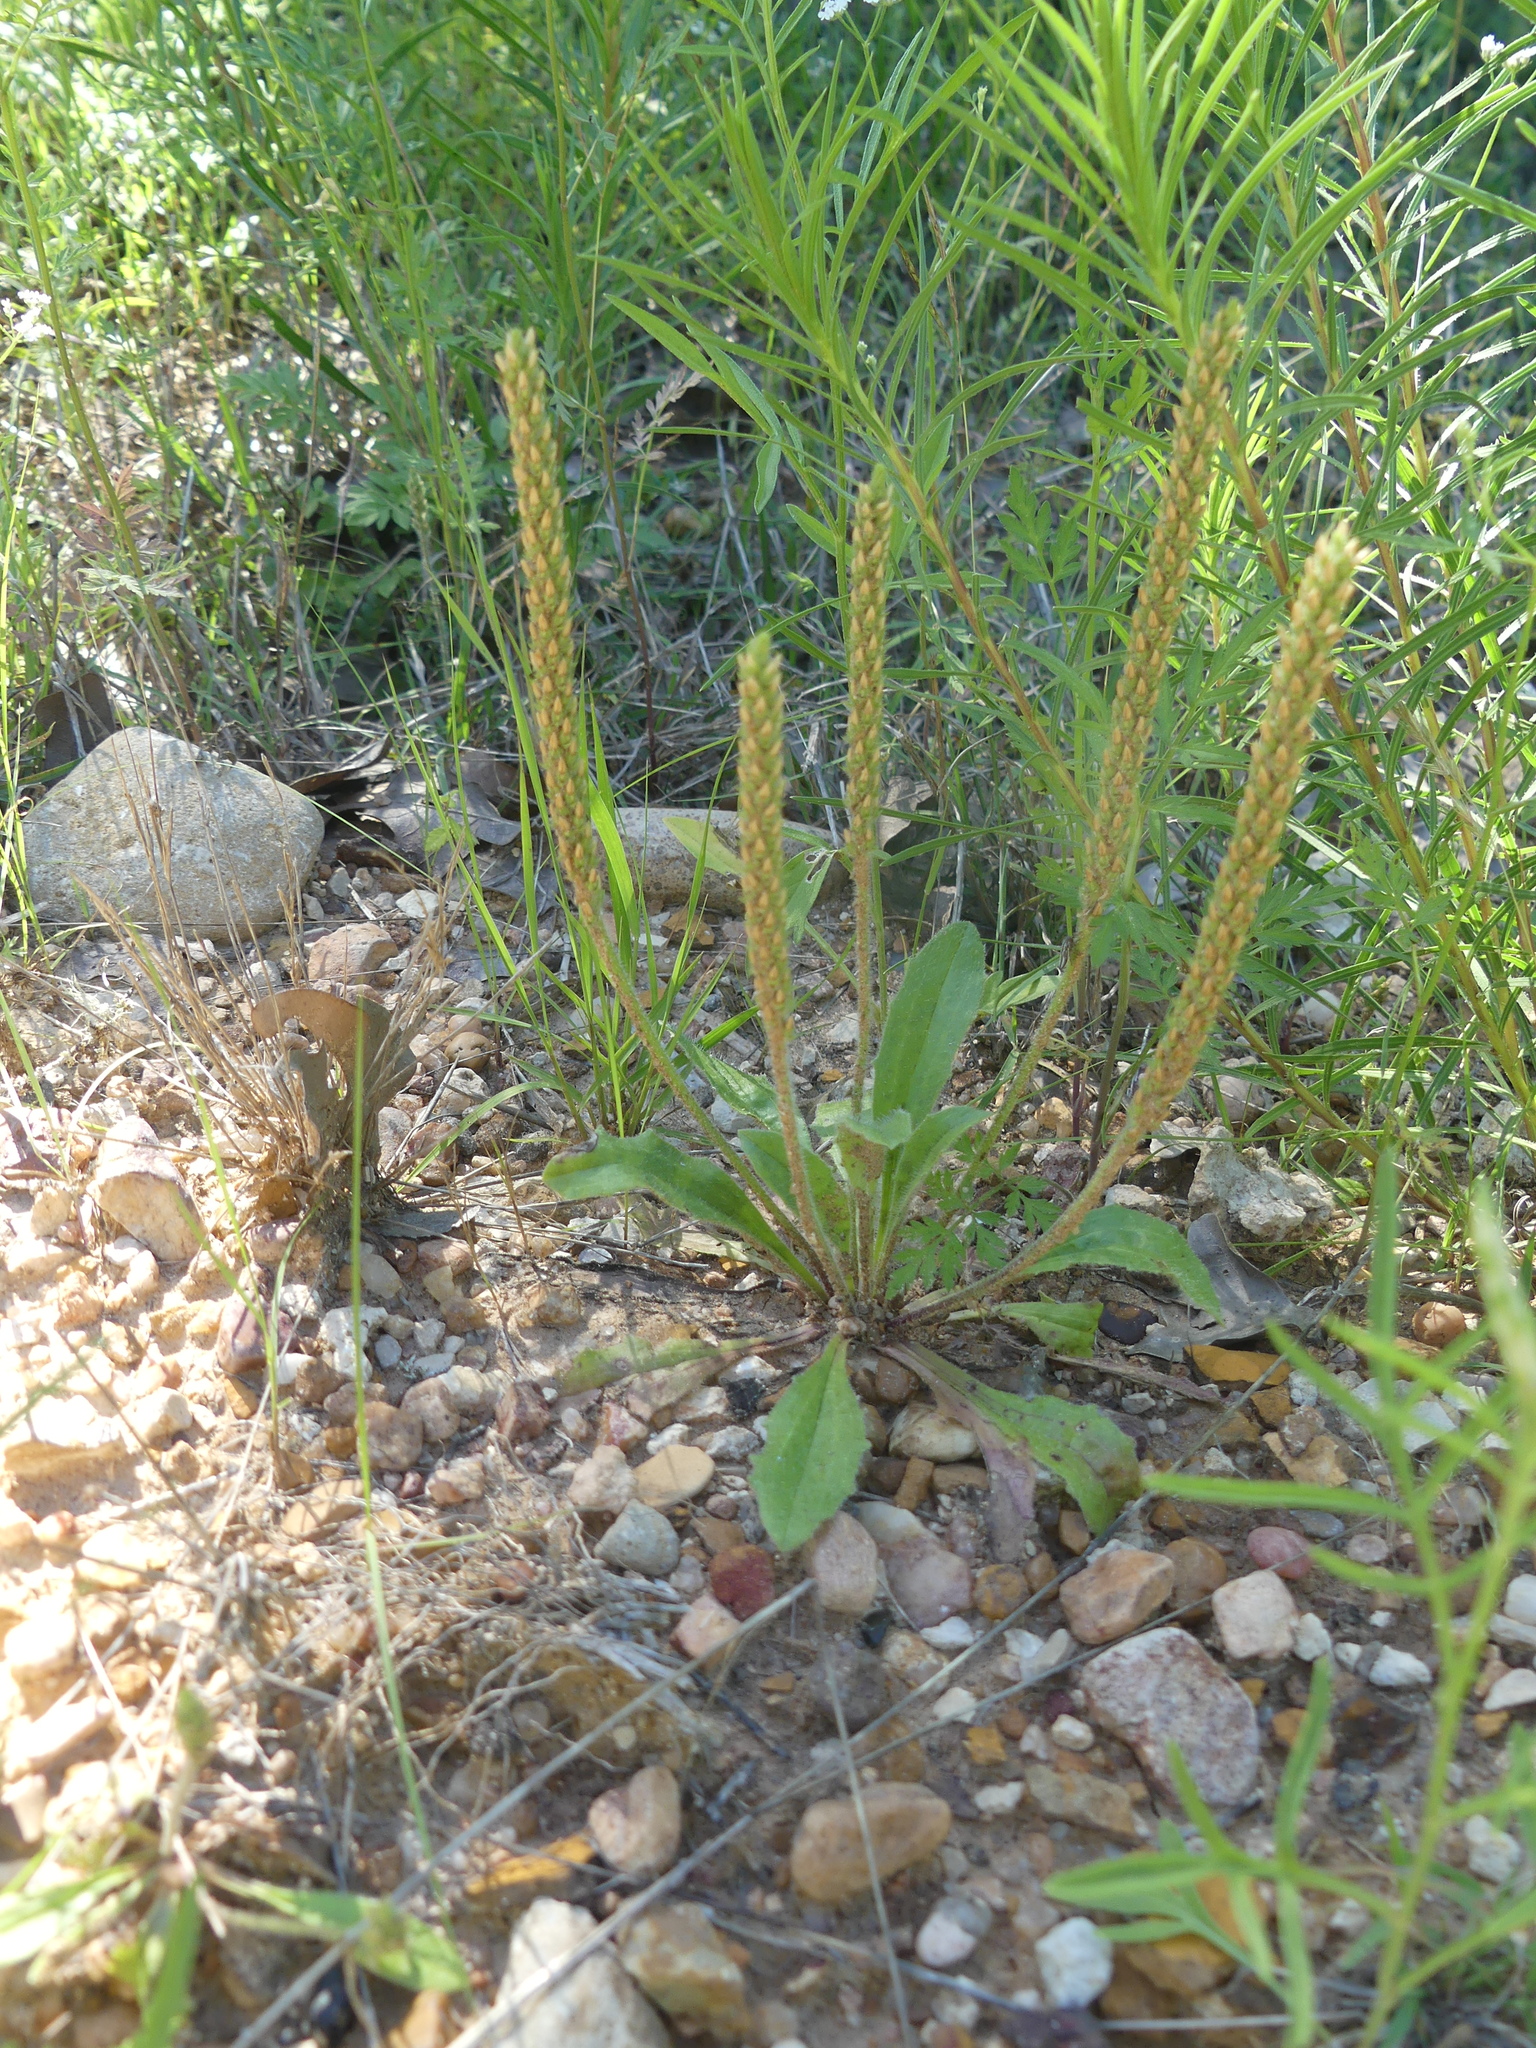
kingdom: Plantae
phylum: Tracheophyta
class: Magnoliopsida
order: Lamiales
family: Plantaginaceae
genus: Plantago
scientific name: Plantago rhodosperma
